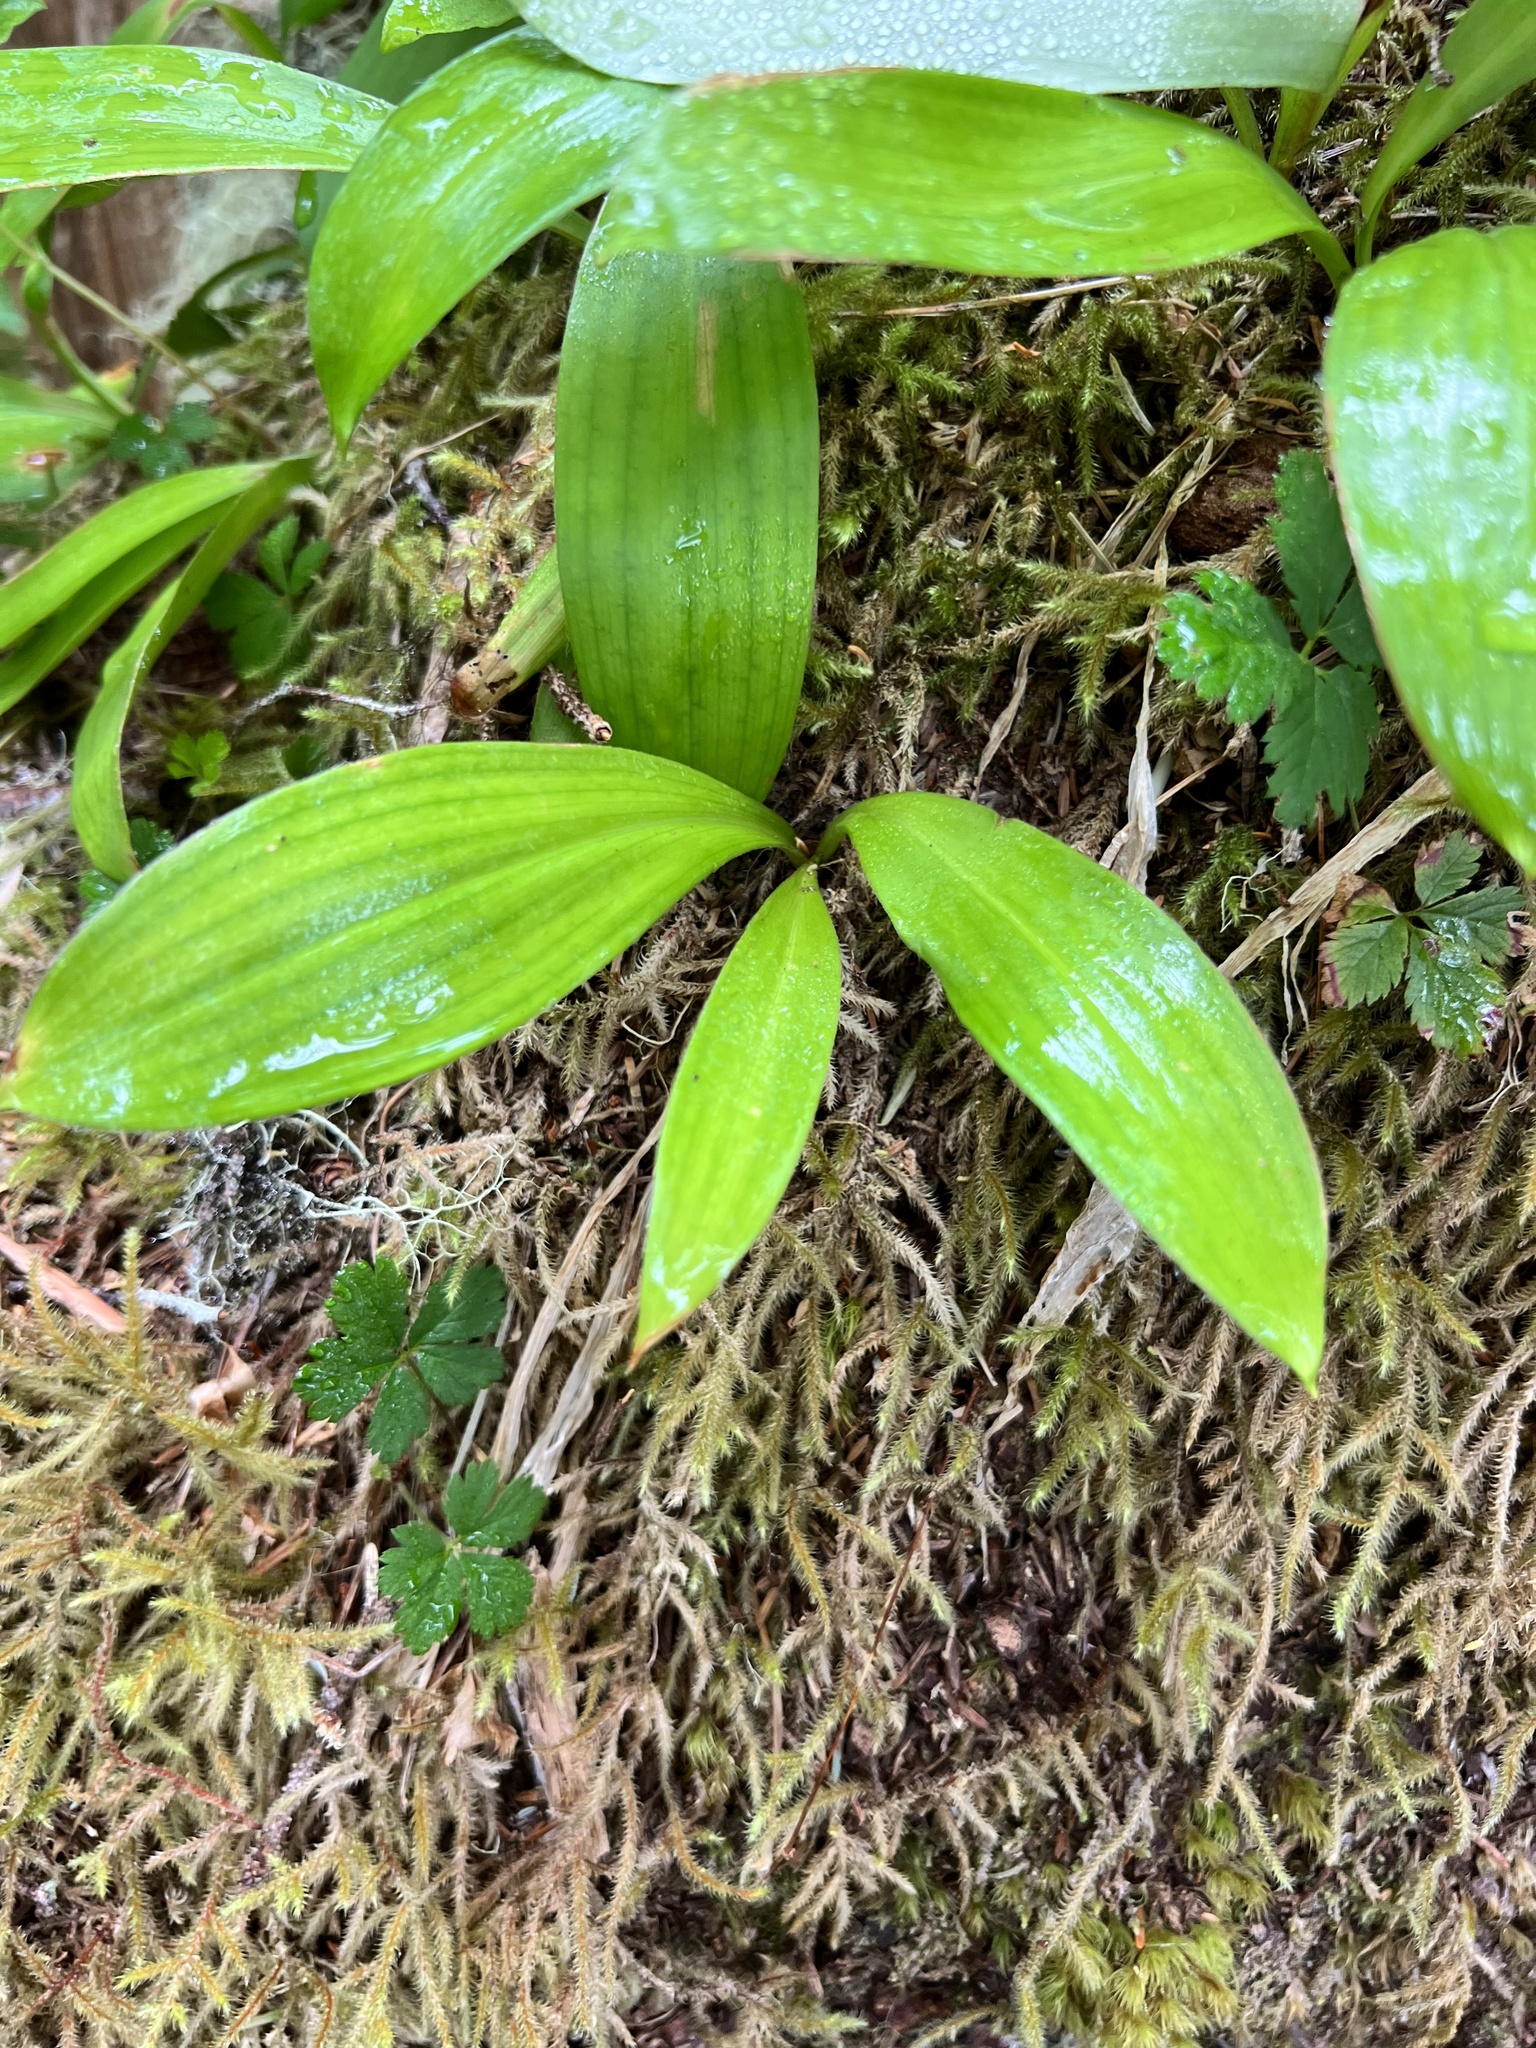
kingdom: Plantae
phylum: Tracheophyta
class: Liliopsida
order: Liliales
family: Liliaceae
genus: Clintonia
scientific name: Clintonia uniflora
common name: Queen's cup
